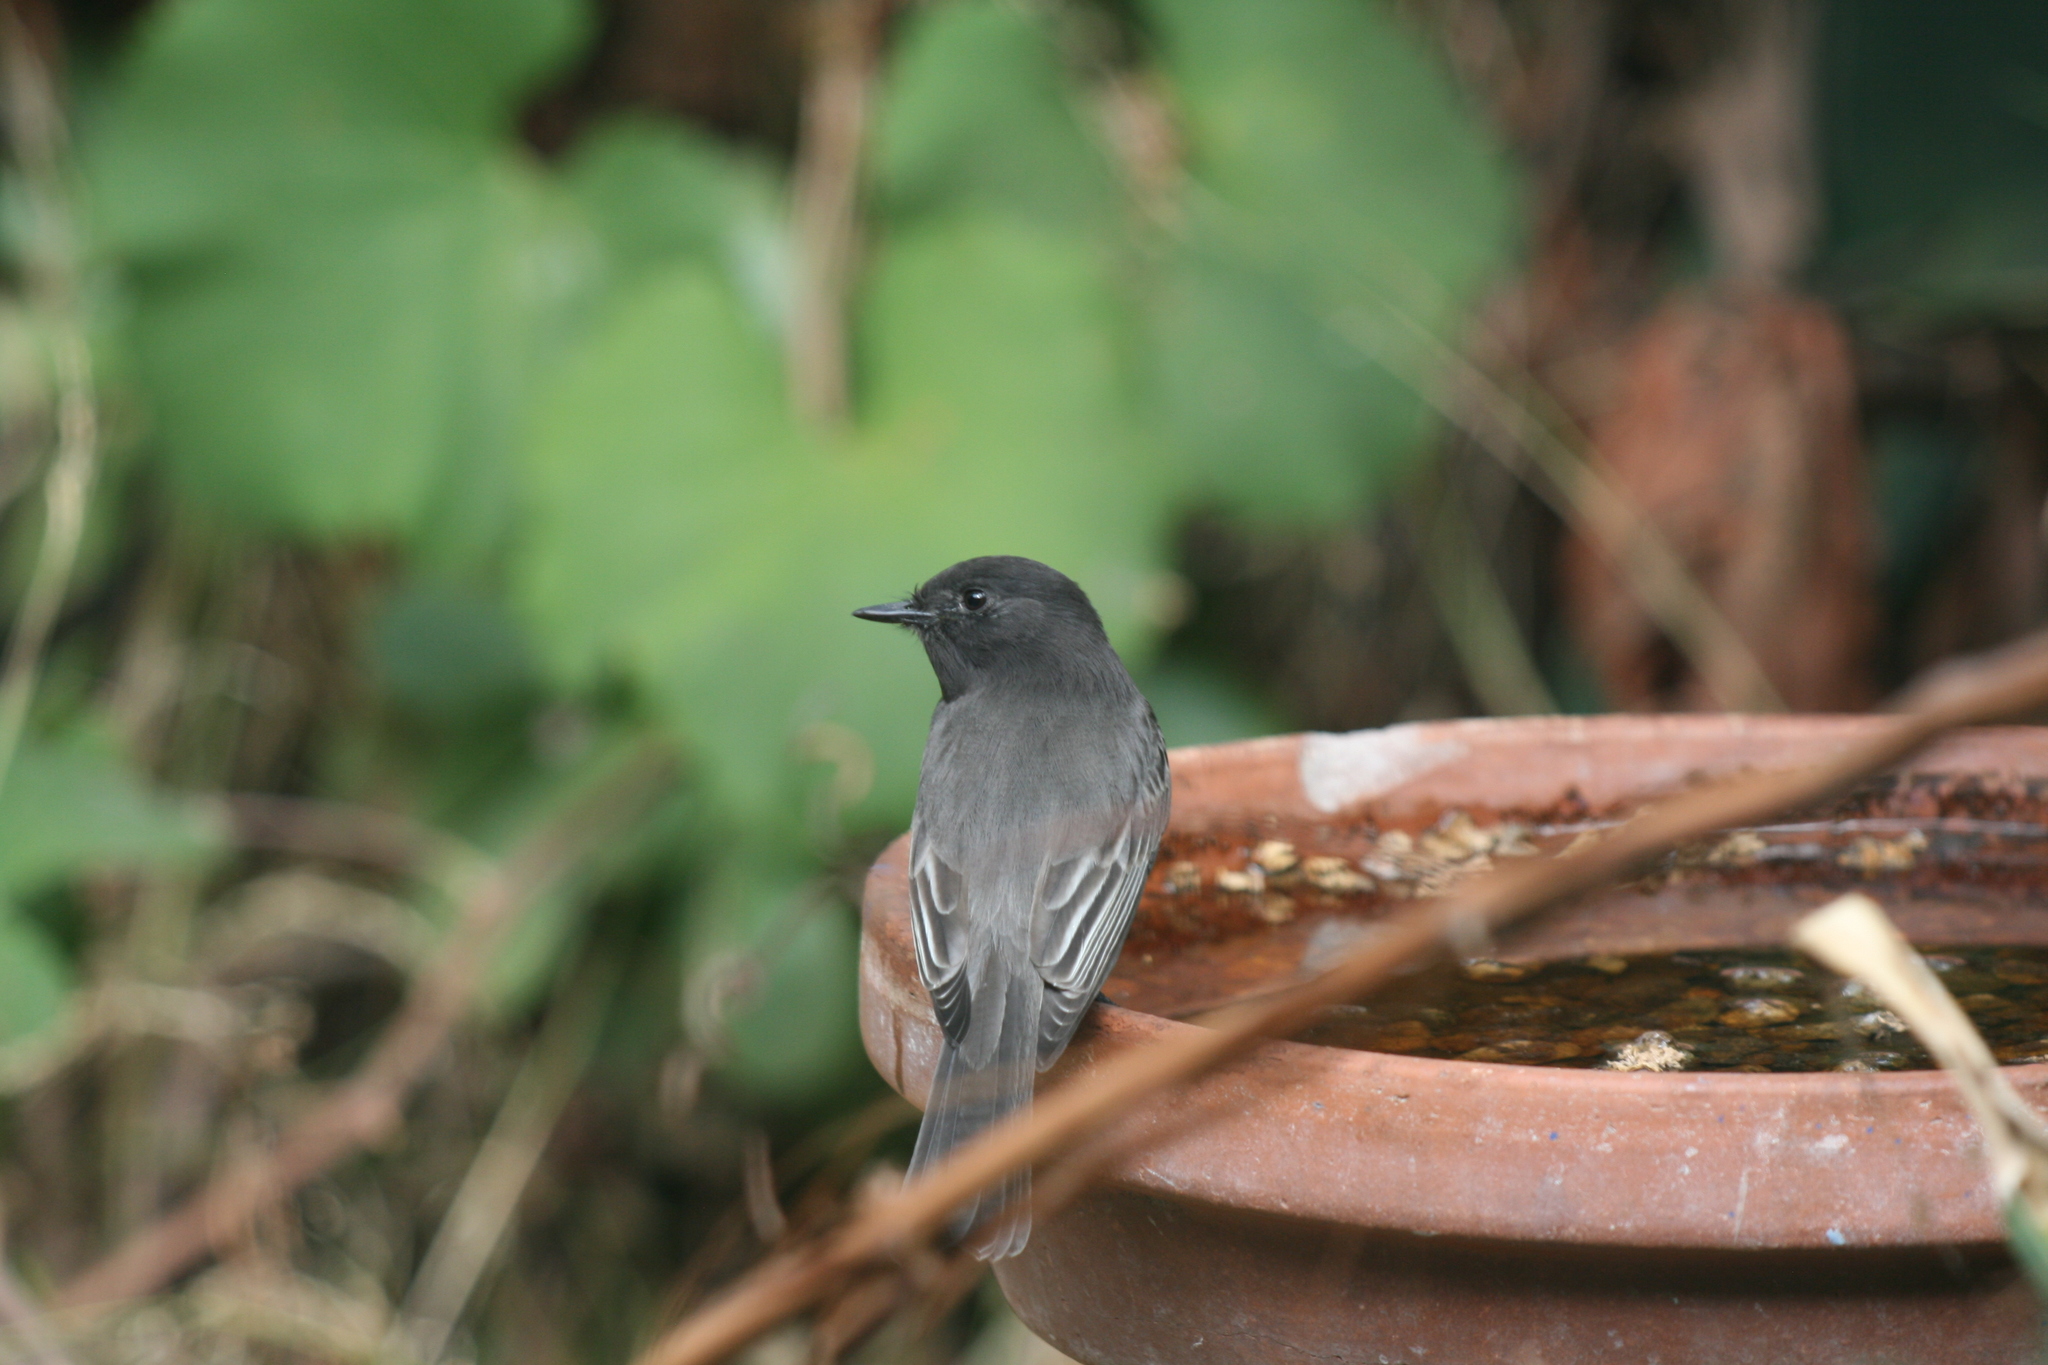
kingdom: Animalia
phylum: Chordata
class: Aves
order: Passeriformes
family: Tyrannidae
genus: Sayornis
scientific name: Sayornis nigricans
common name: Black phoebe
